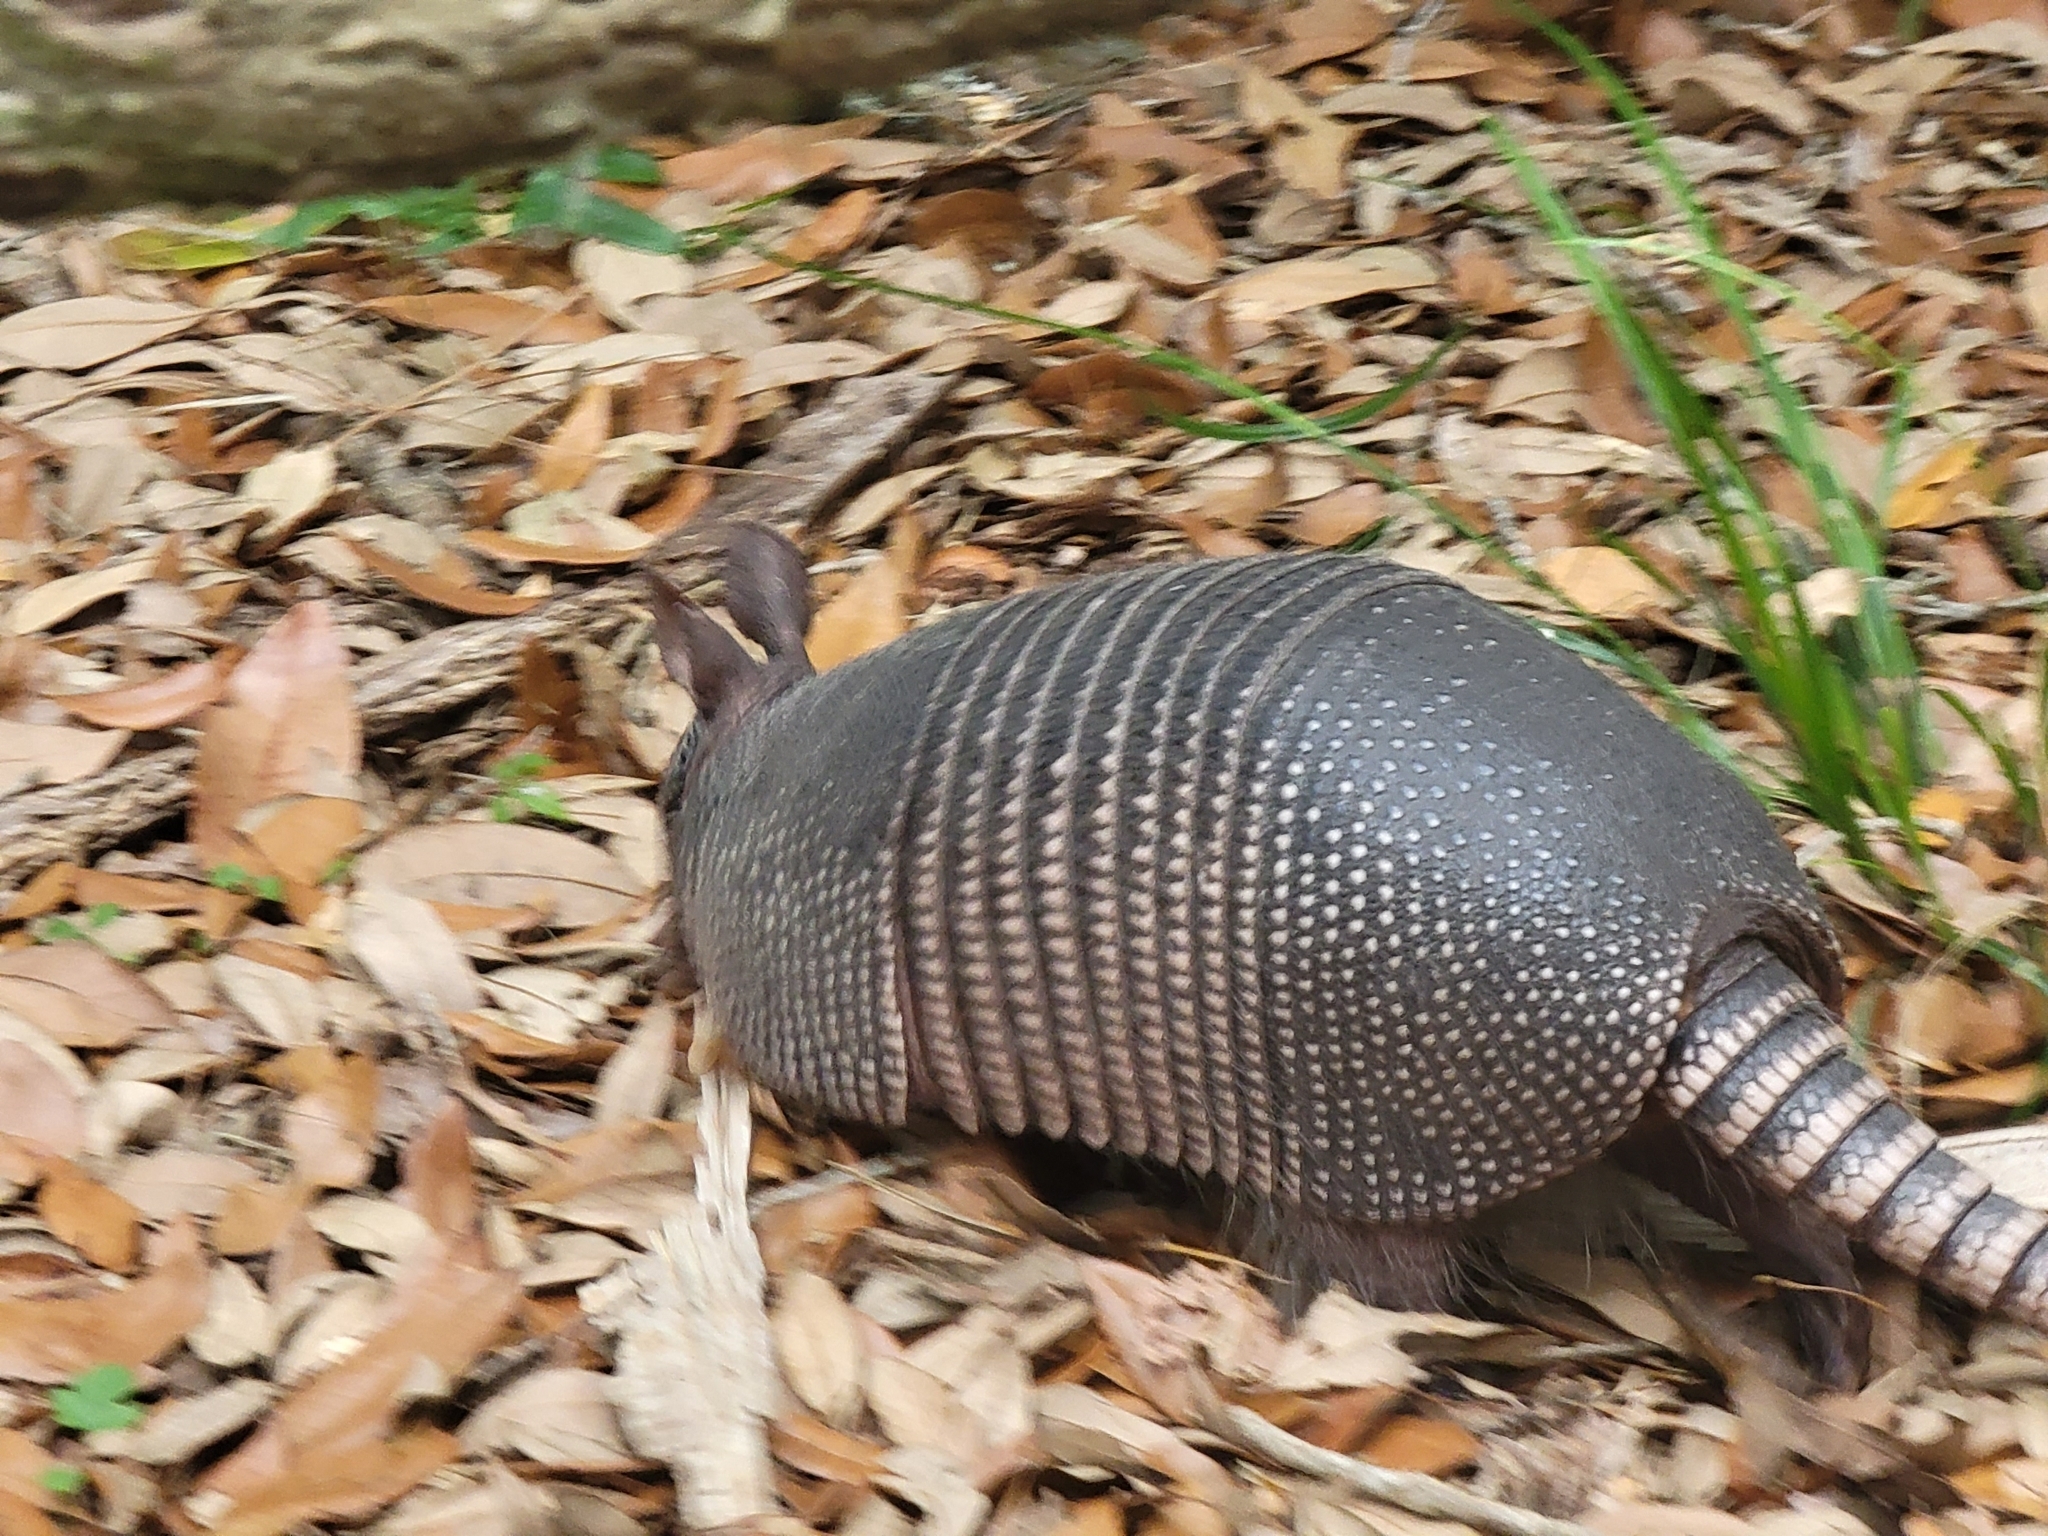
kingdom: Animalia
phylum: Chordata
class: Mammalia
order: Cingulata
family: Dasypodidae
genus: Dasypus
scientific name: Dasypus novemcinctus
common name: Nine-banded armadillo
